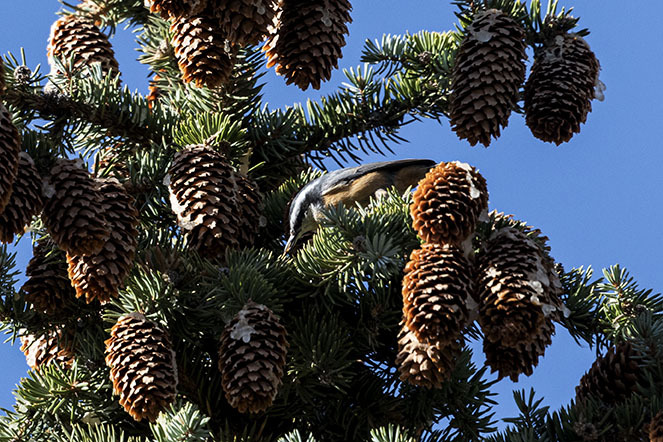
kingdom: Animalia
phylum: Chordata
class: Aves
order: Passeriformes
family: Sittidae
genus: Sitta
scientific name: Sitta canadensis
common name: Red-breasted nuthatch
